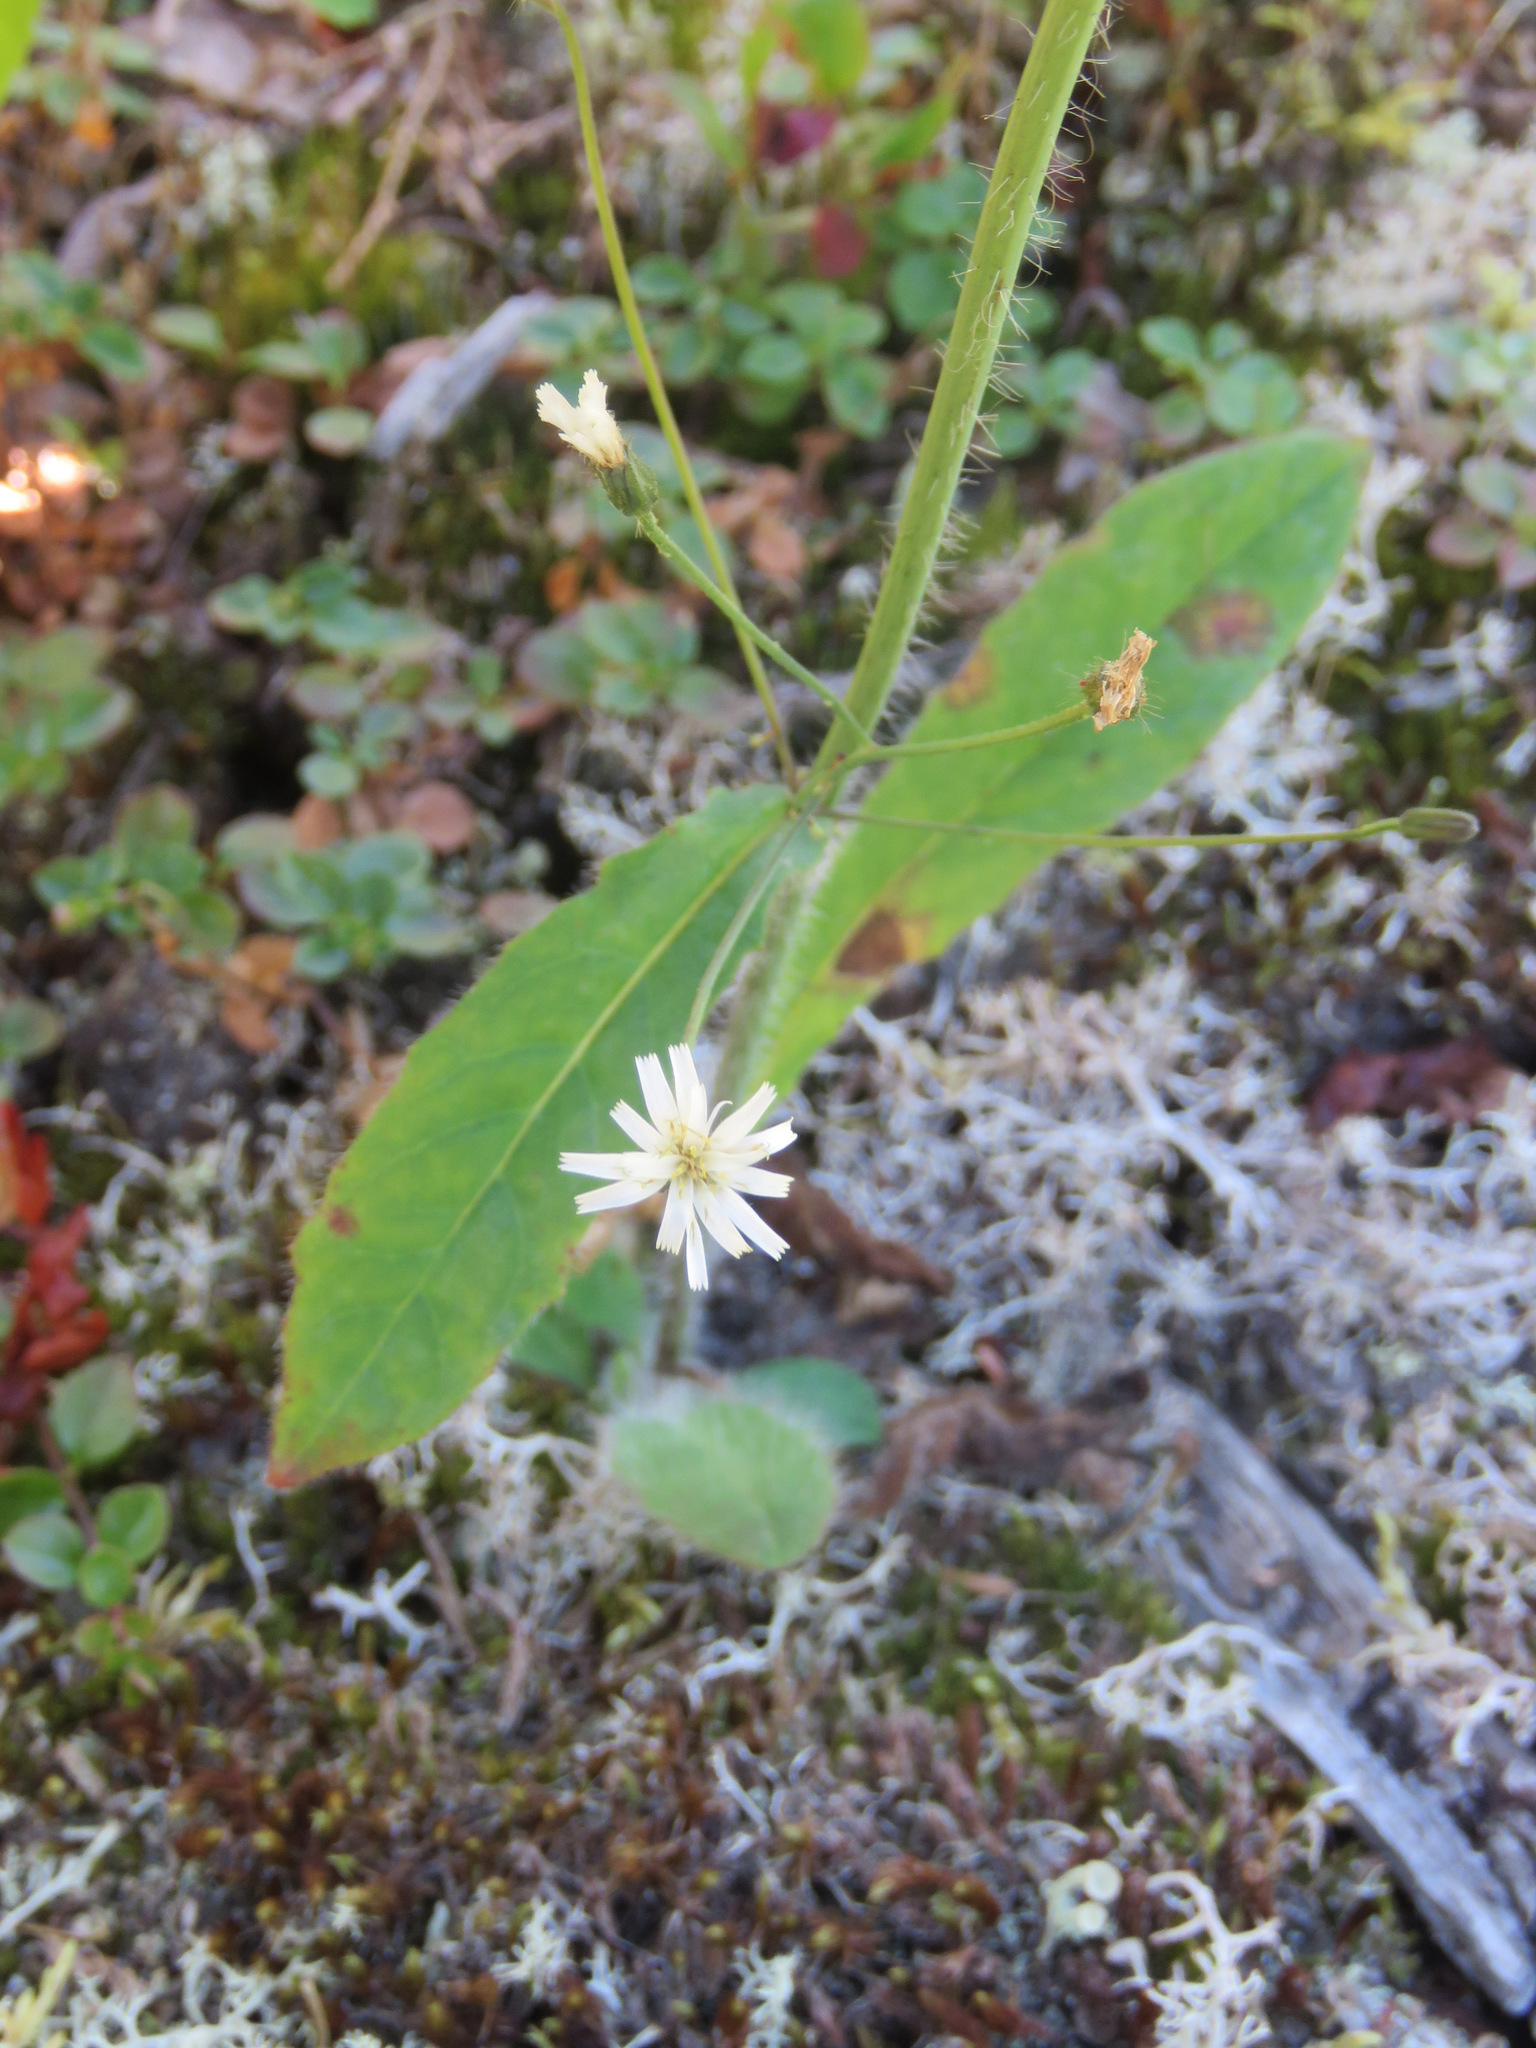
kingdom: Plantae
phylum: Tracheophyta
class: Magnoliopsida
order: Asterales
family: Asteraceae
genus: Hieracium
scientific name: Hieracium albiflorum
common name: White hawkweed
